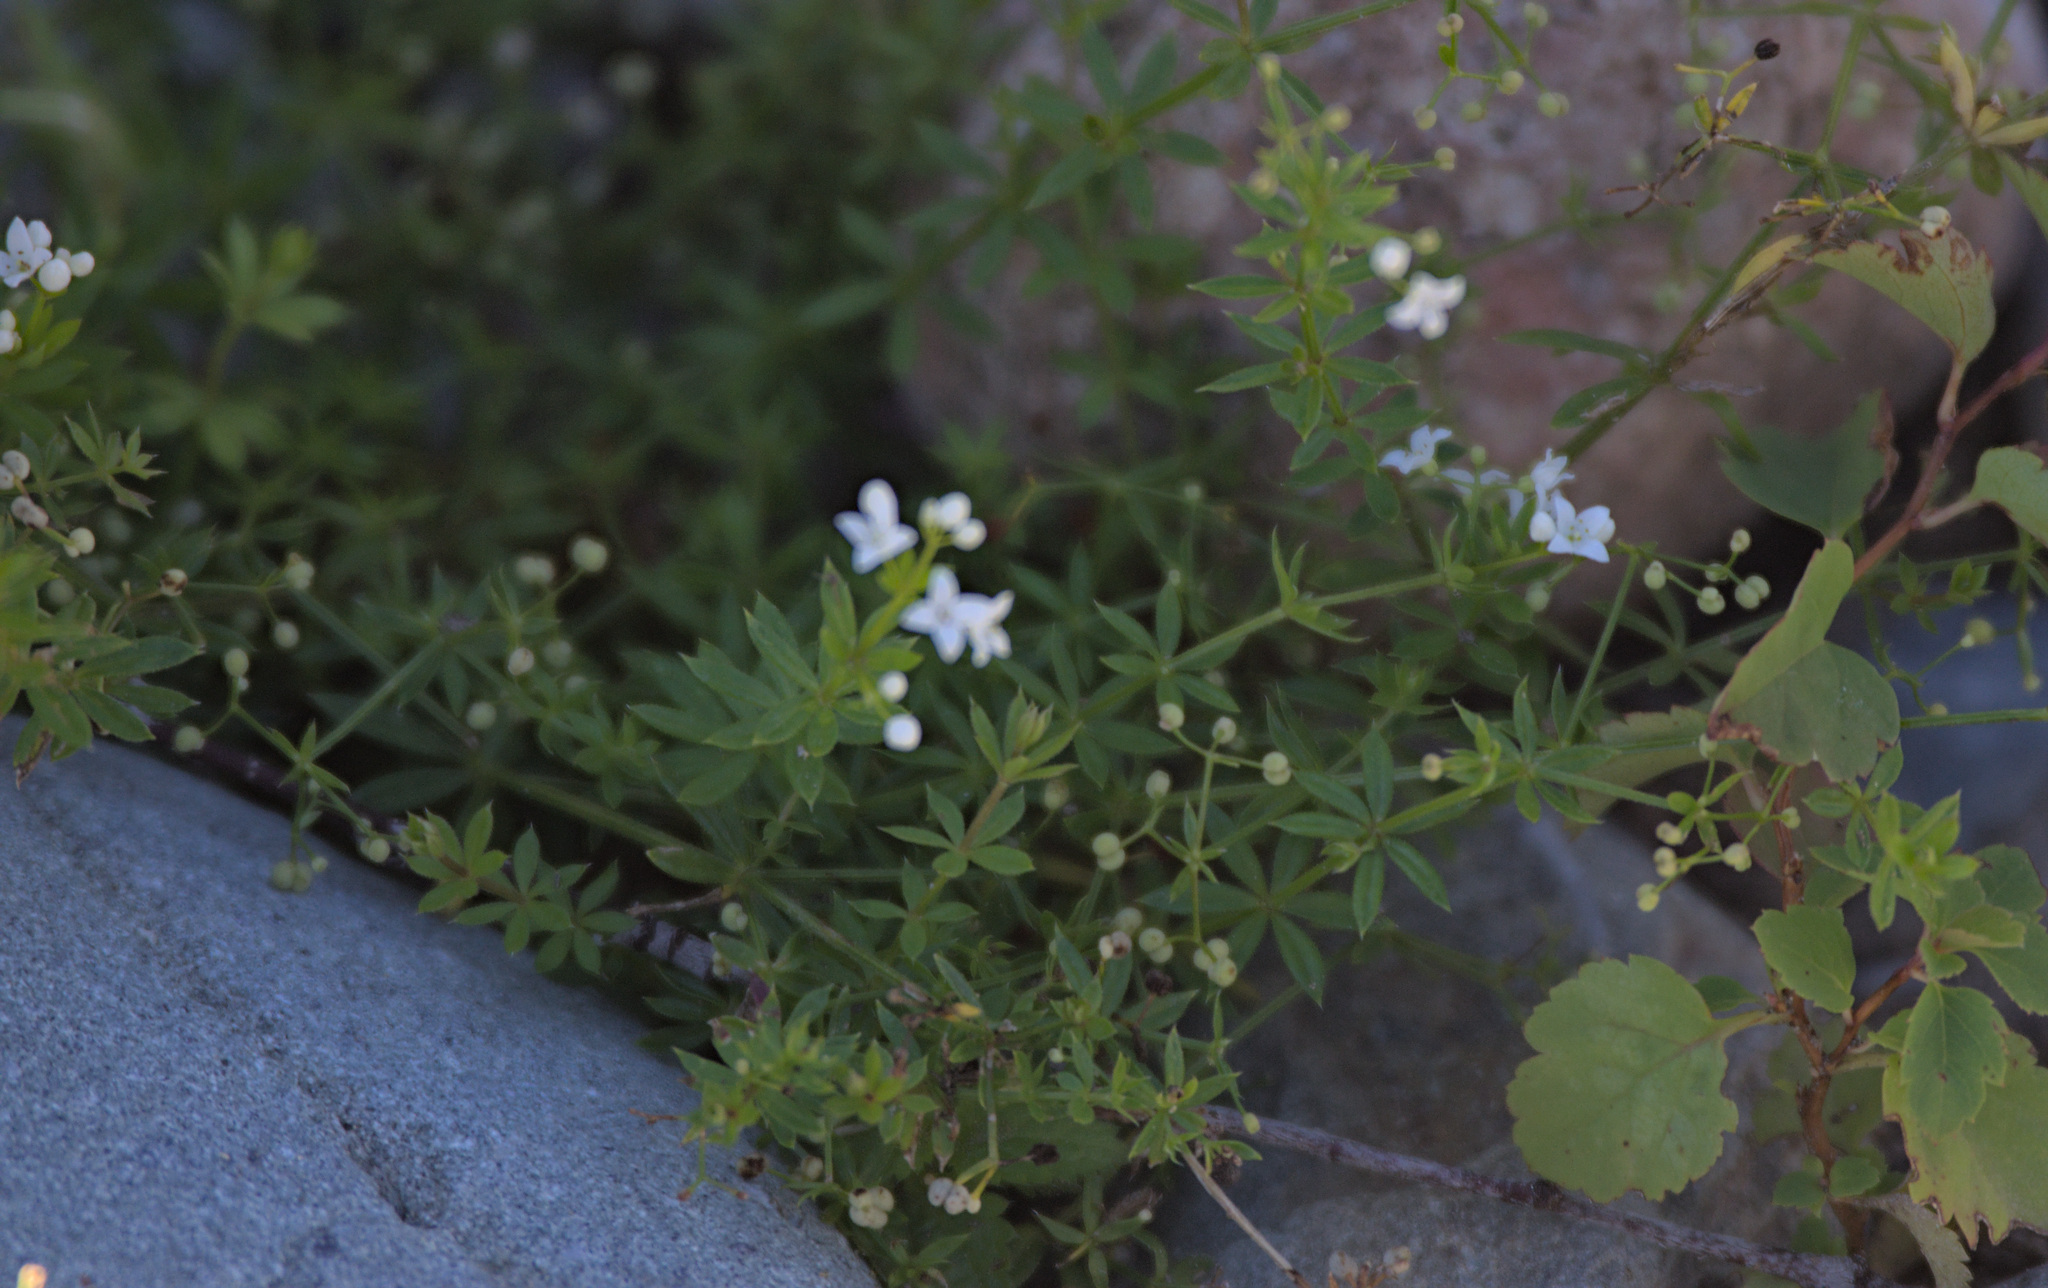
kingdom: Plantae
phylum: Tracheophyta
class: Magnoliopsida
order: Gentianales
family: Rubiaceae
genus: Galium
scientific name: Galium uliginosum
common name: Fen bedstraw
